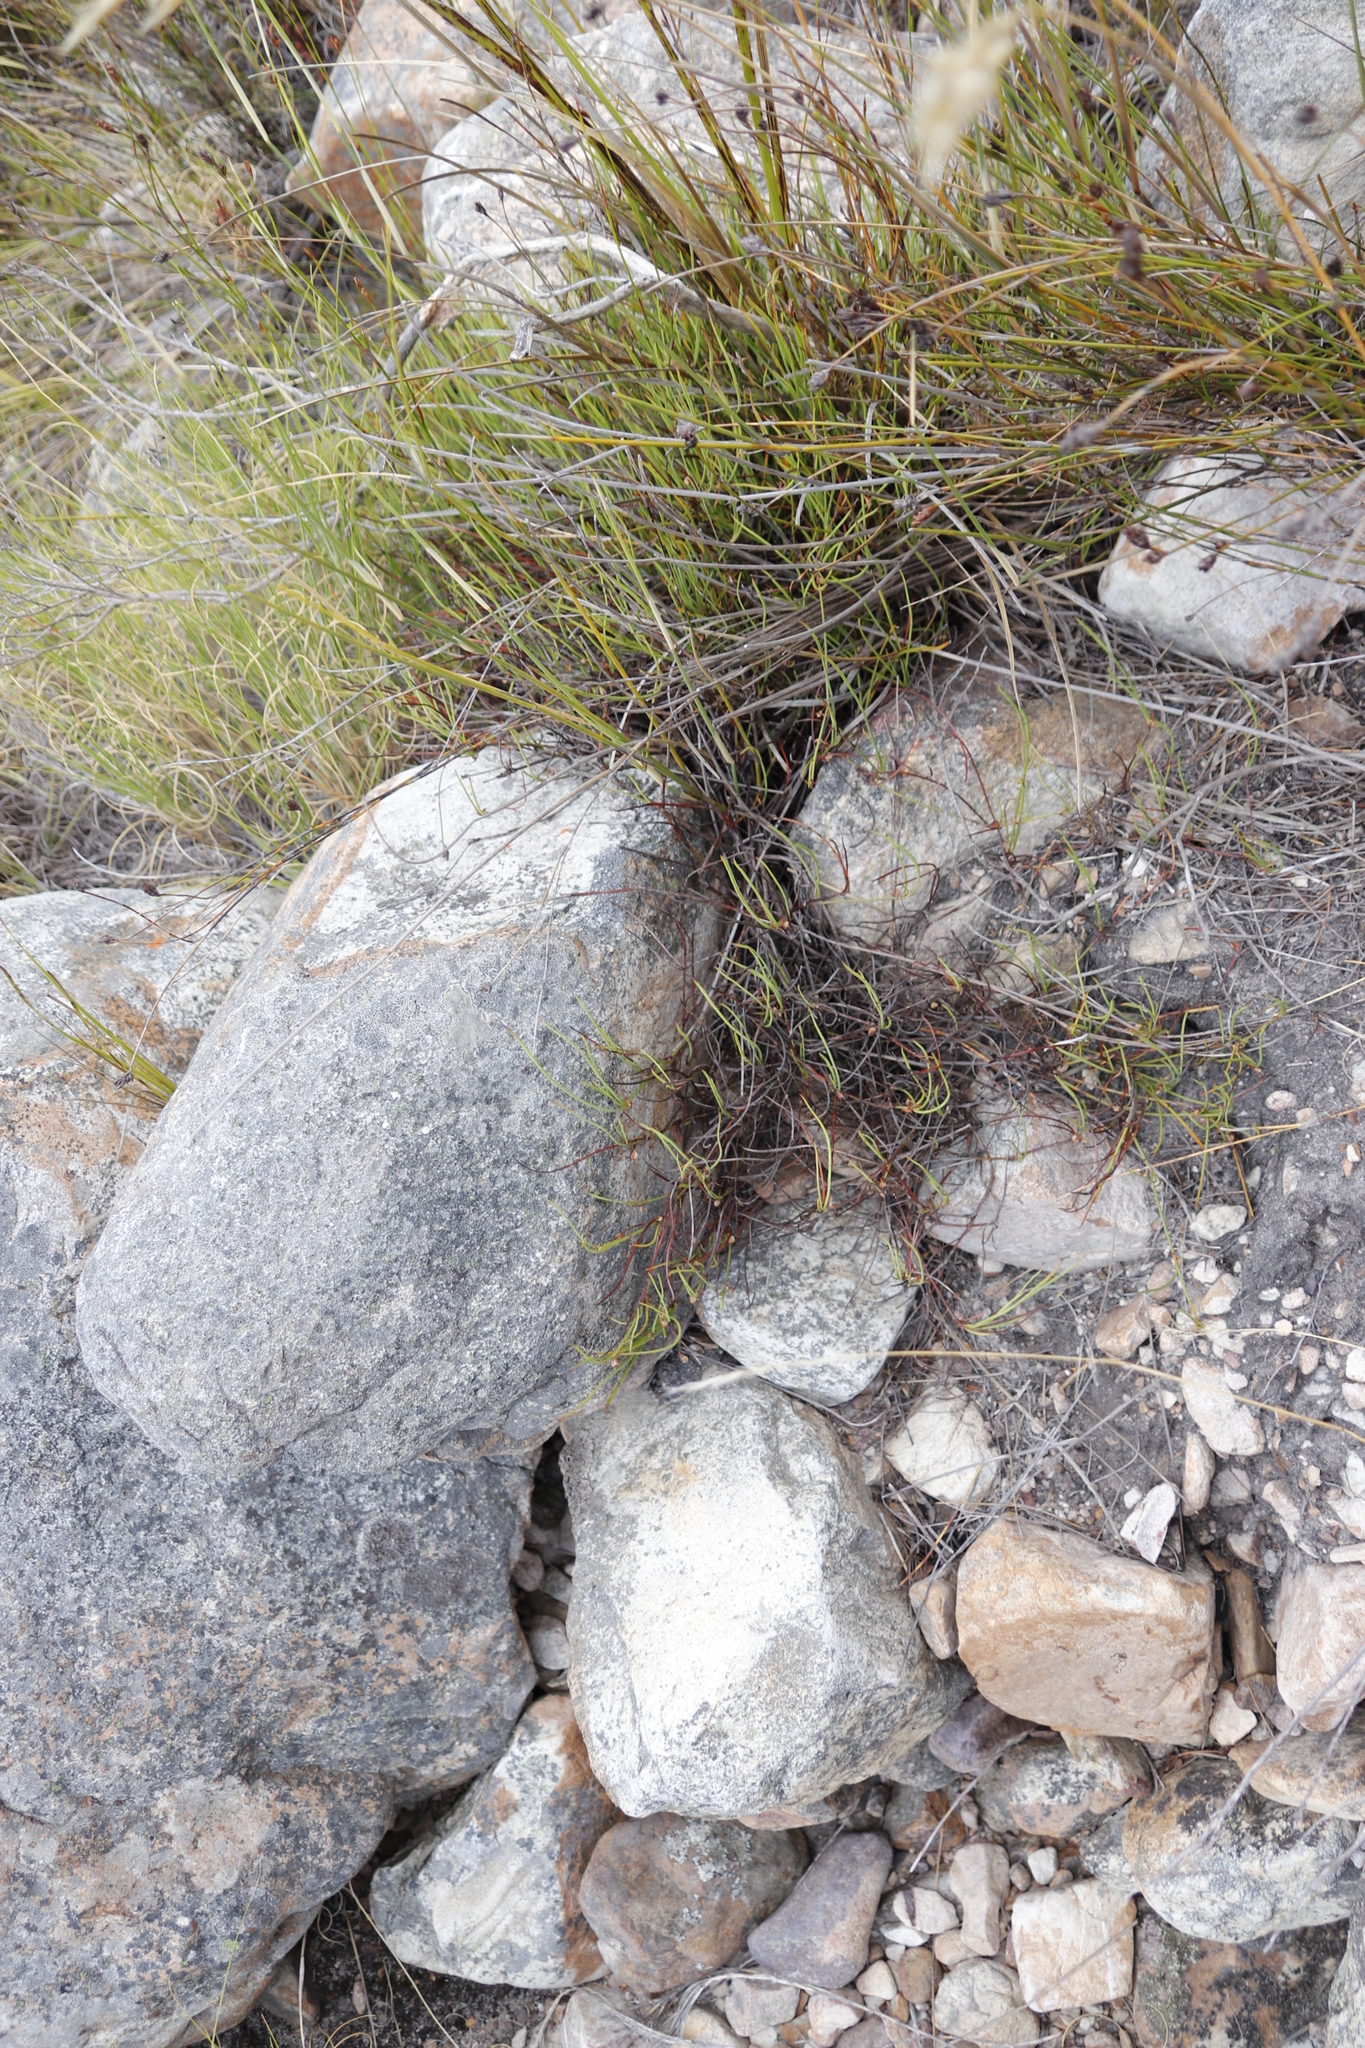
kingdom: Plantae
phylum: Tracheophyta
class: Magnoliopsida
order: Apiales
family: Apiaceae
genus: Centella
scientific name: Centella restioides
